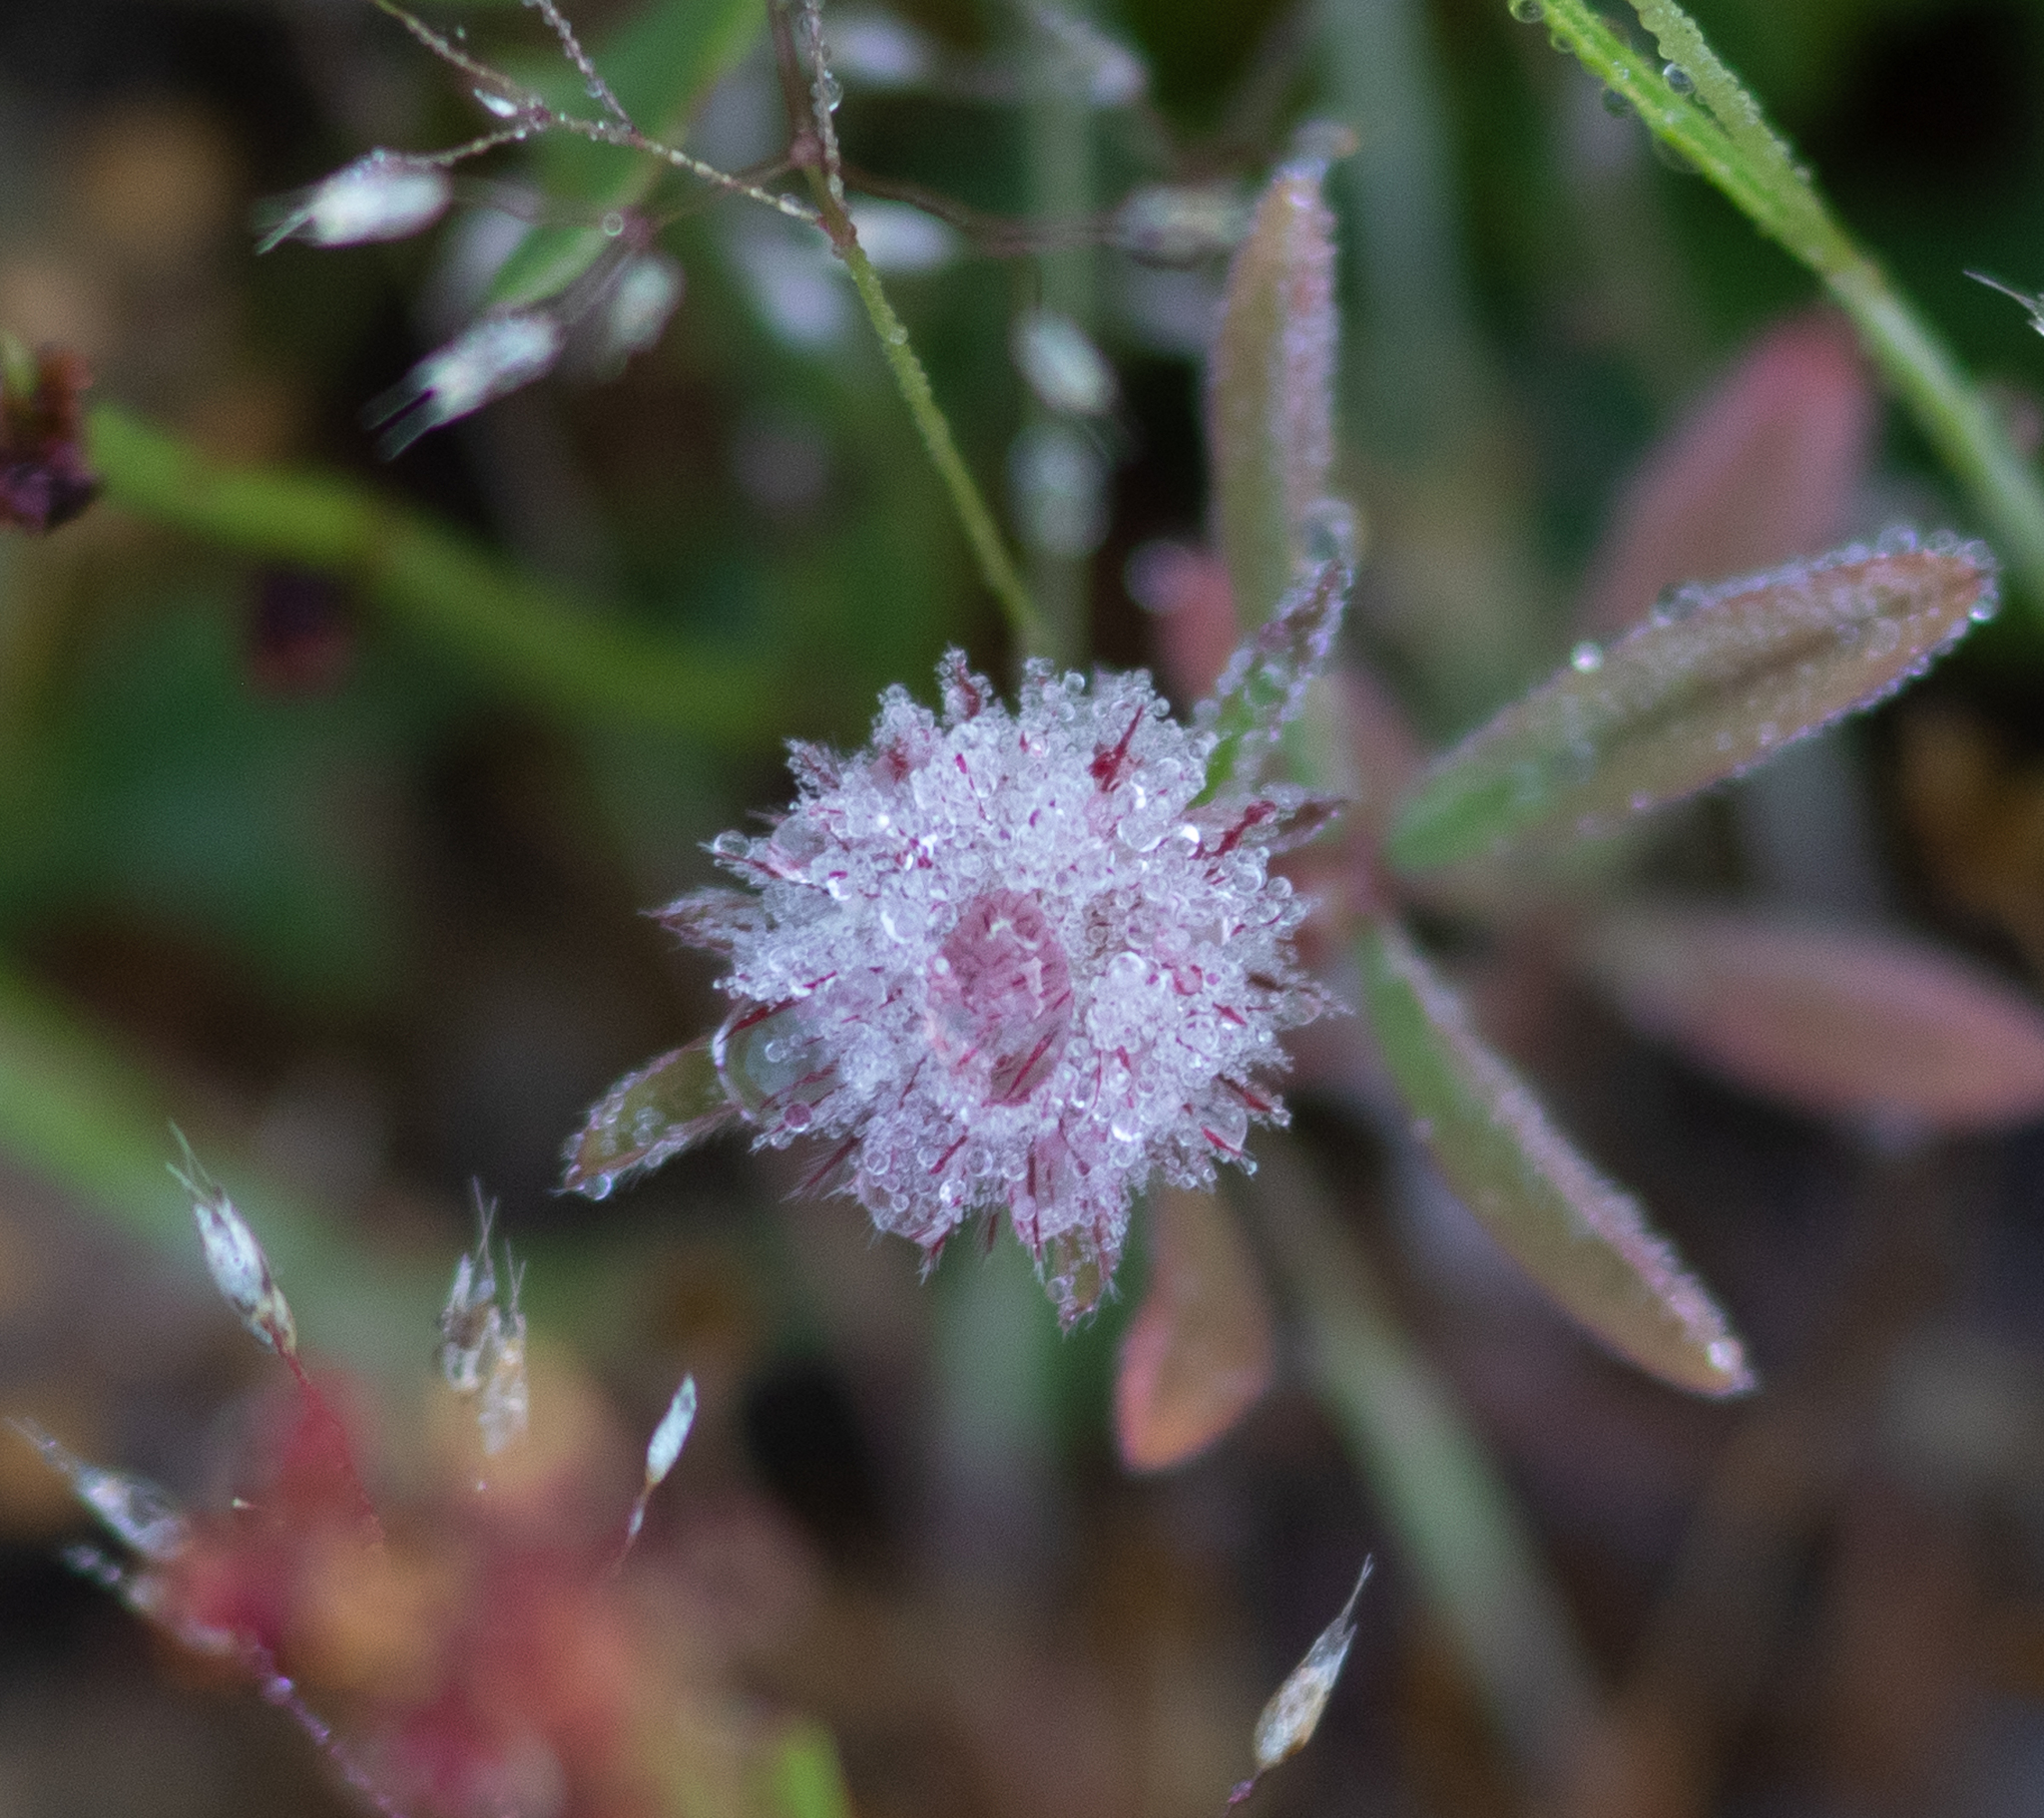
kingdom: Plantae
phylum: Tracheophyta
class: Magnoliopsida
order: Fabales
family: Fabaceae
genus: Trifolium
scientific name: Trifolium arvense
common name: Hare's-foot clover
